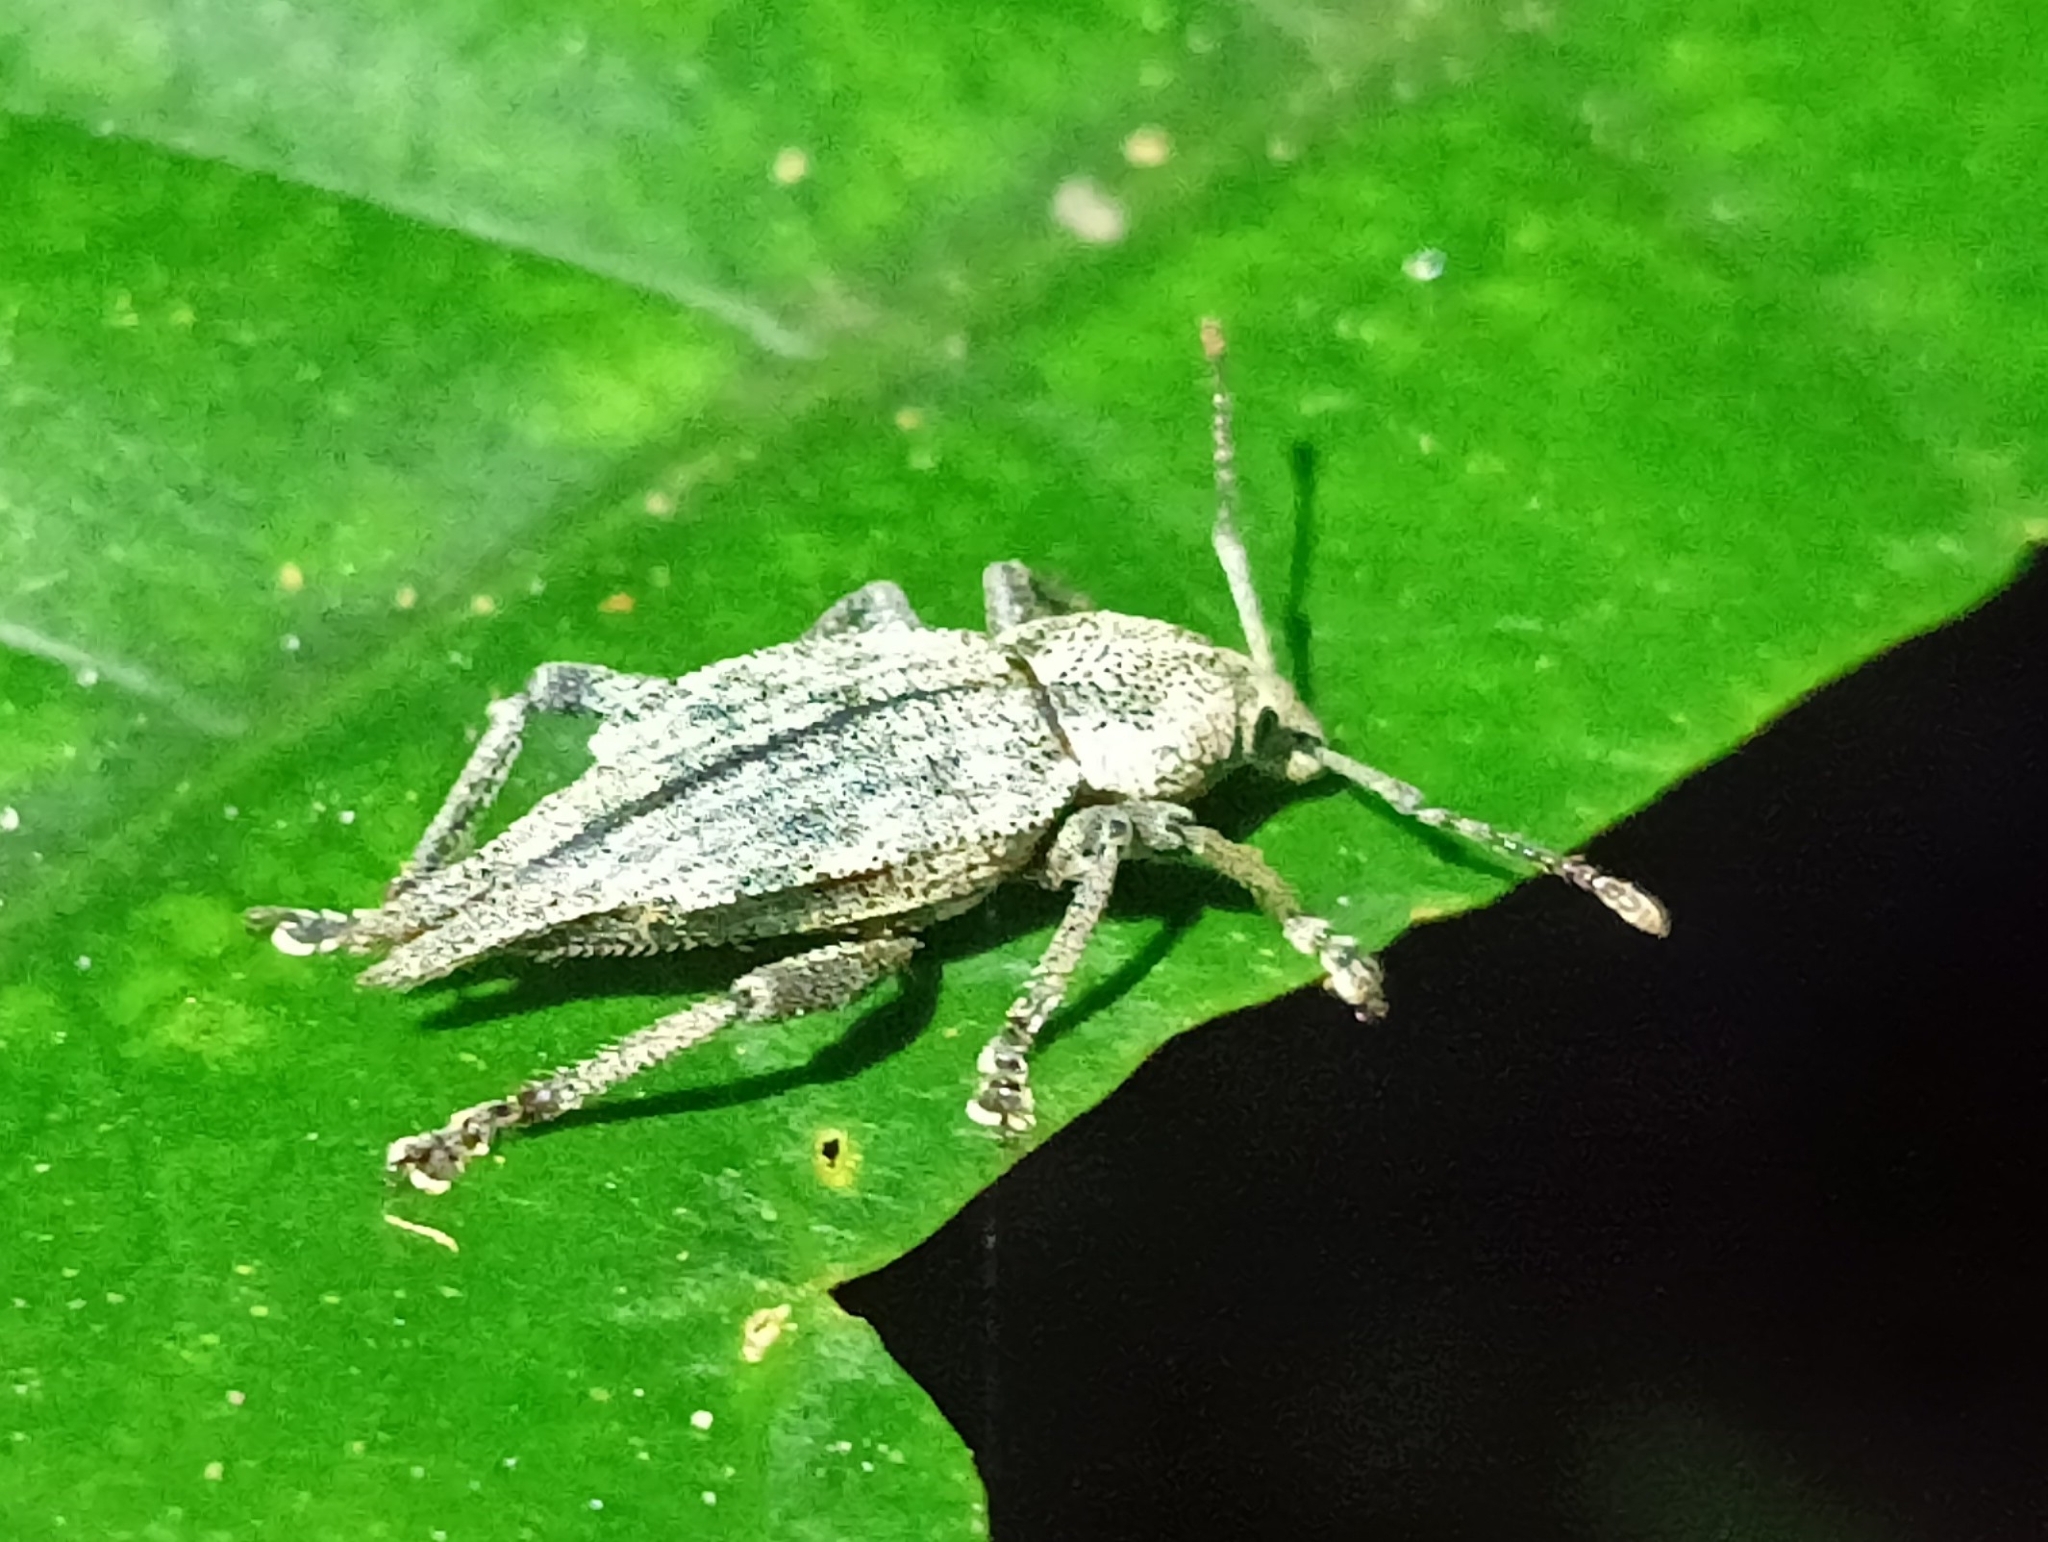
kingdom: Animalia
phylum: Arthropoda
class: Insecta
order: Coleoptera
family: Curculionidae
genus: Elytrurus
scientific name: Elytrurus caudatus
